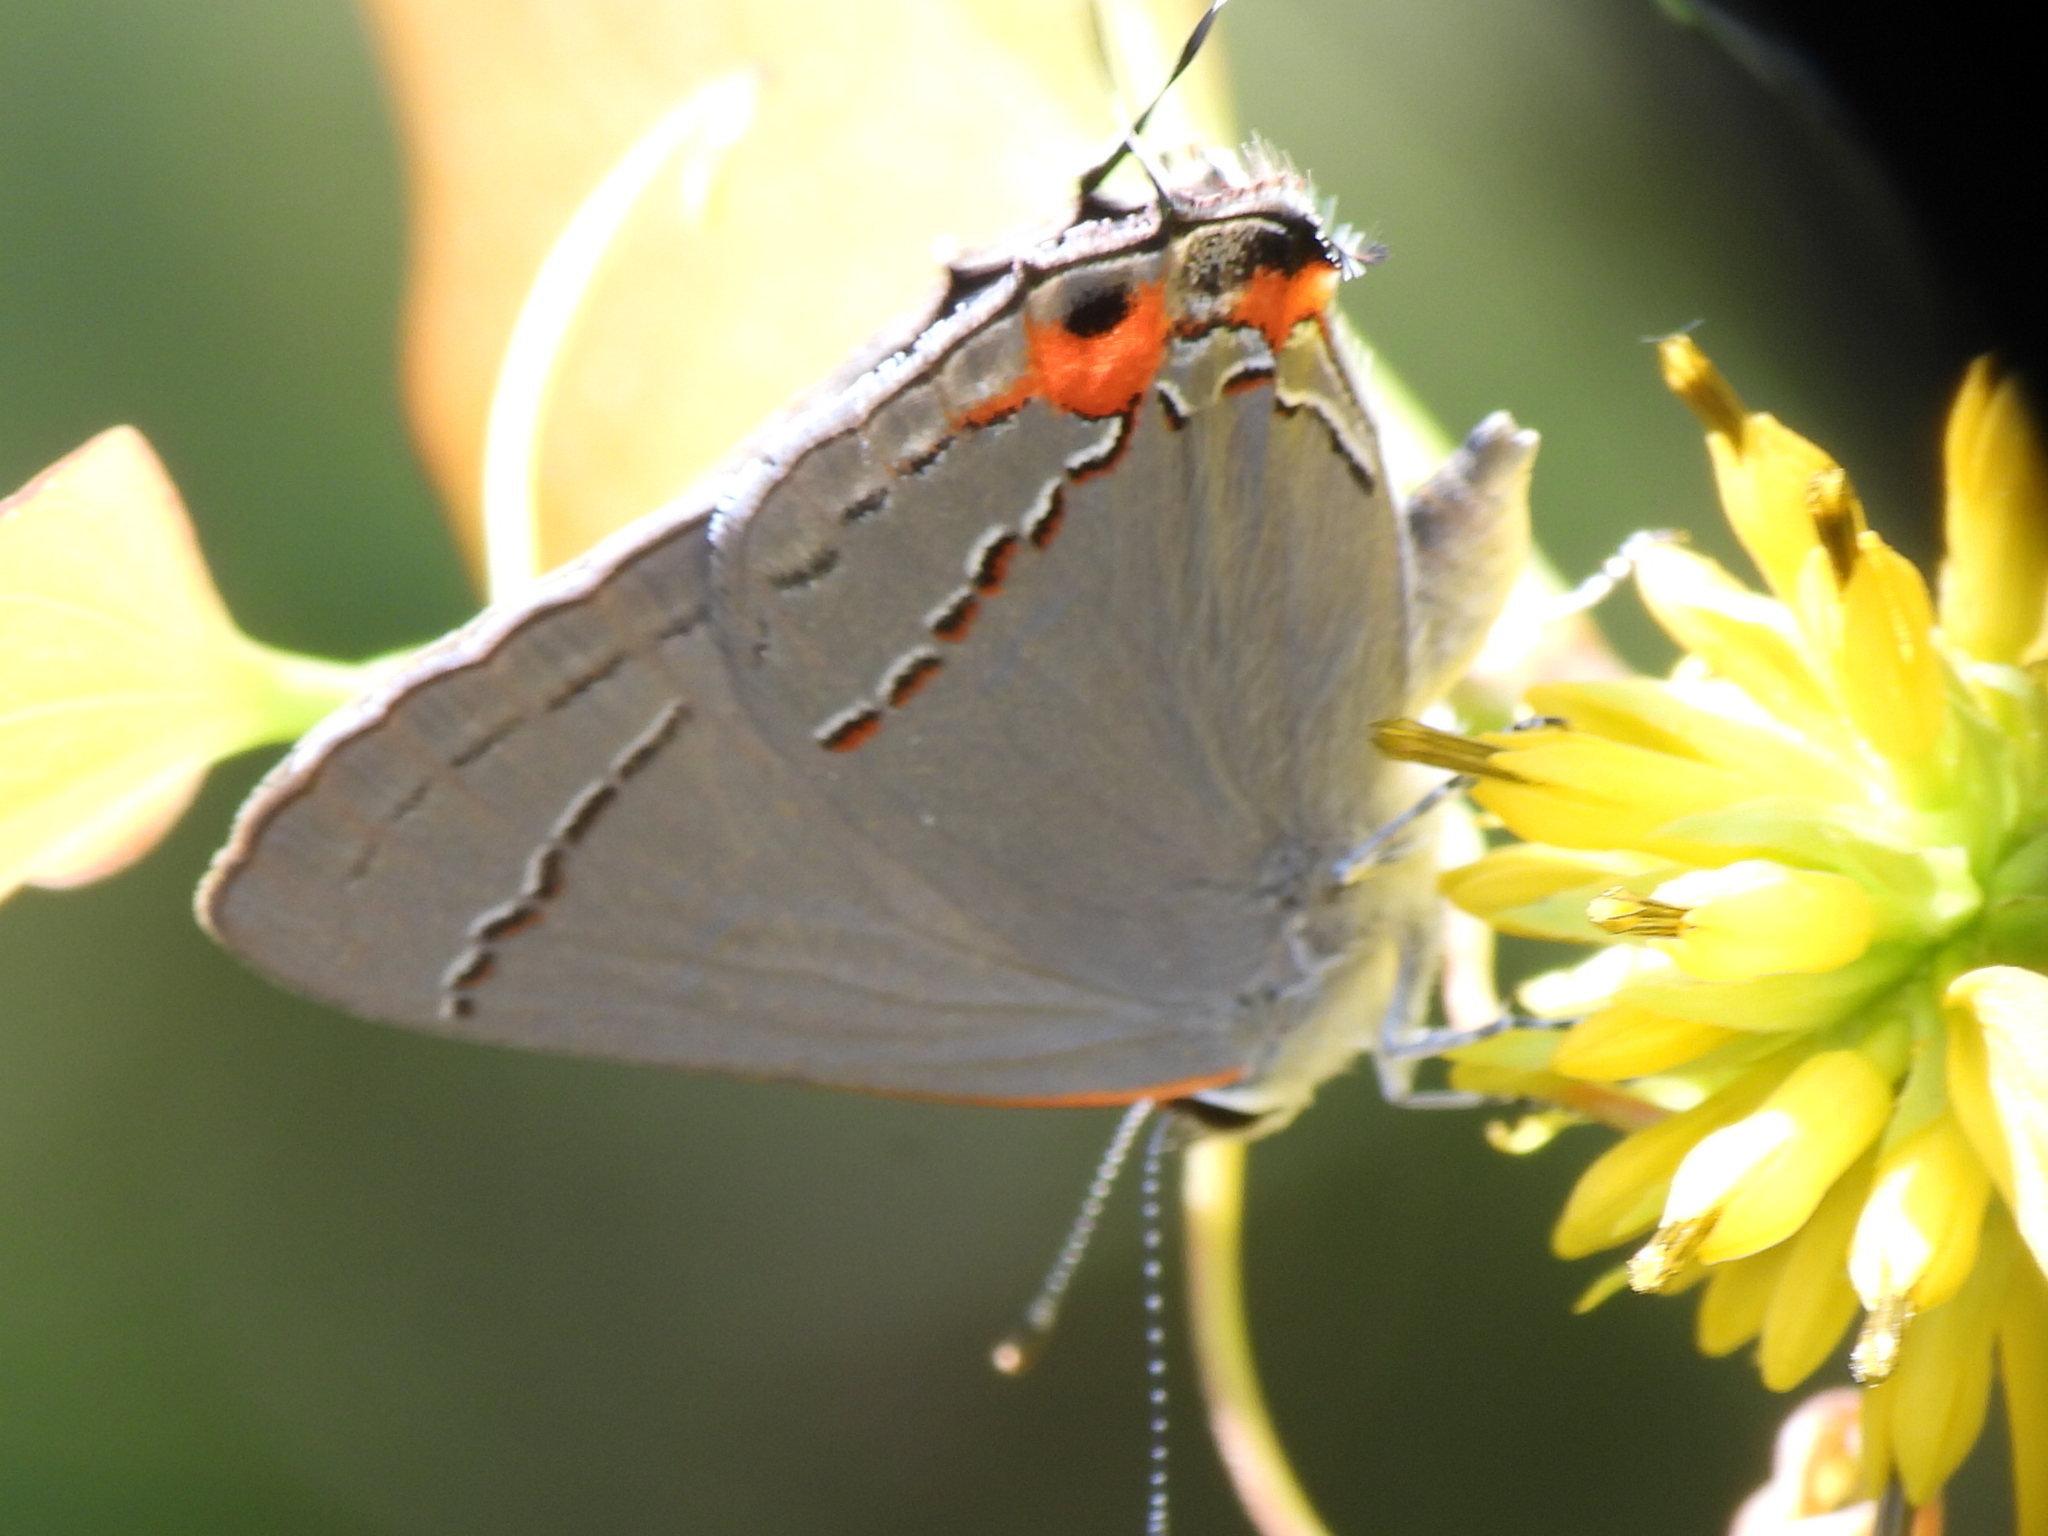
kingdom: Animalia
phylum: Arthropoda
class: Insecta
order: Lepidoptera
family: Lycaenidae
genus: Strymon
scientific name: Strymon melinus
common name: Gray hairstreak
